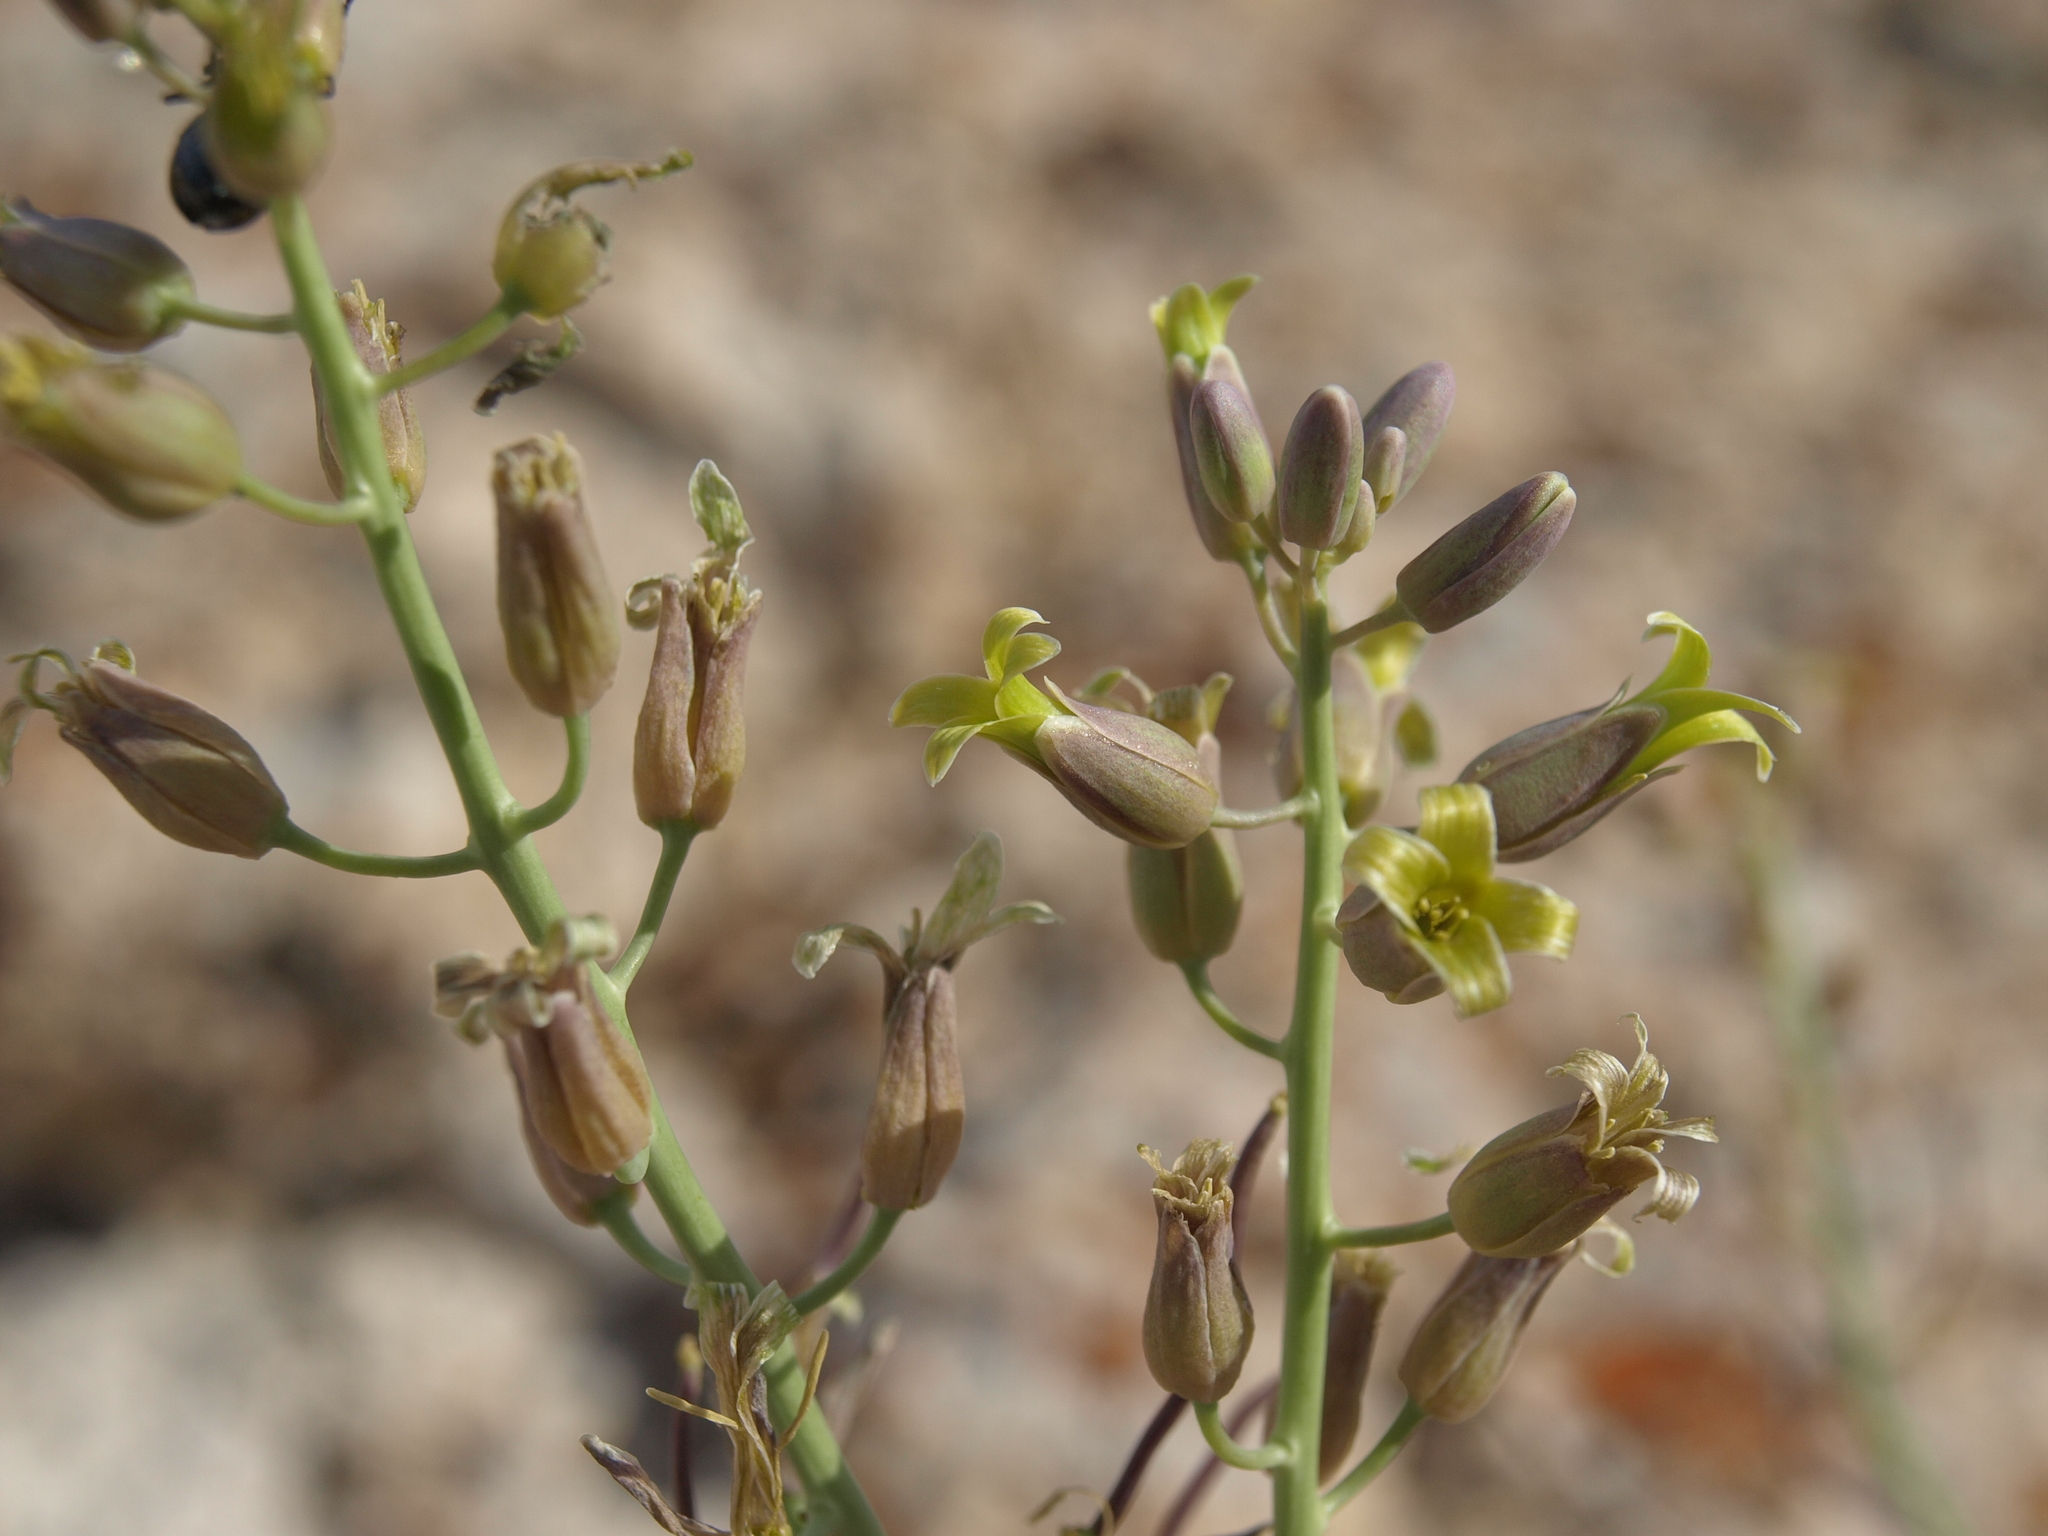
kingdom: Plantae
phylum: Tracheophyta
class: Magnoliopsida
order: Brassicales
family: Brassicaceae
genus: Streptanthus
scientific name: Streptanthus glaucus
